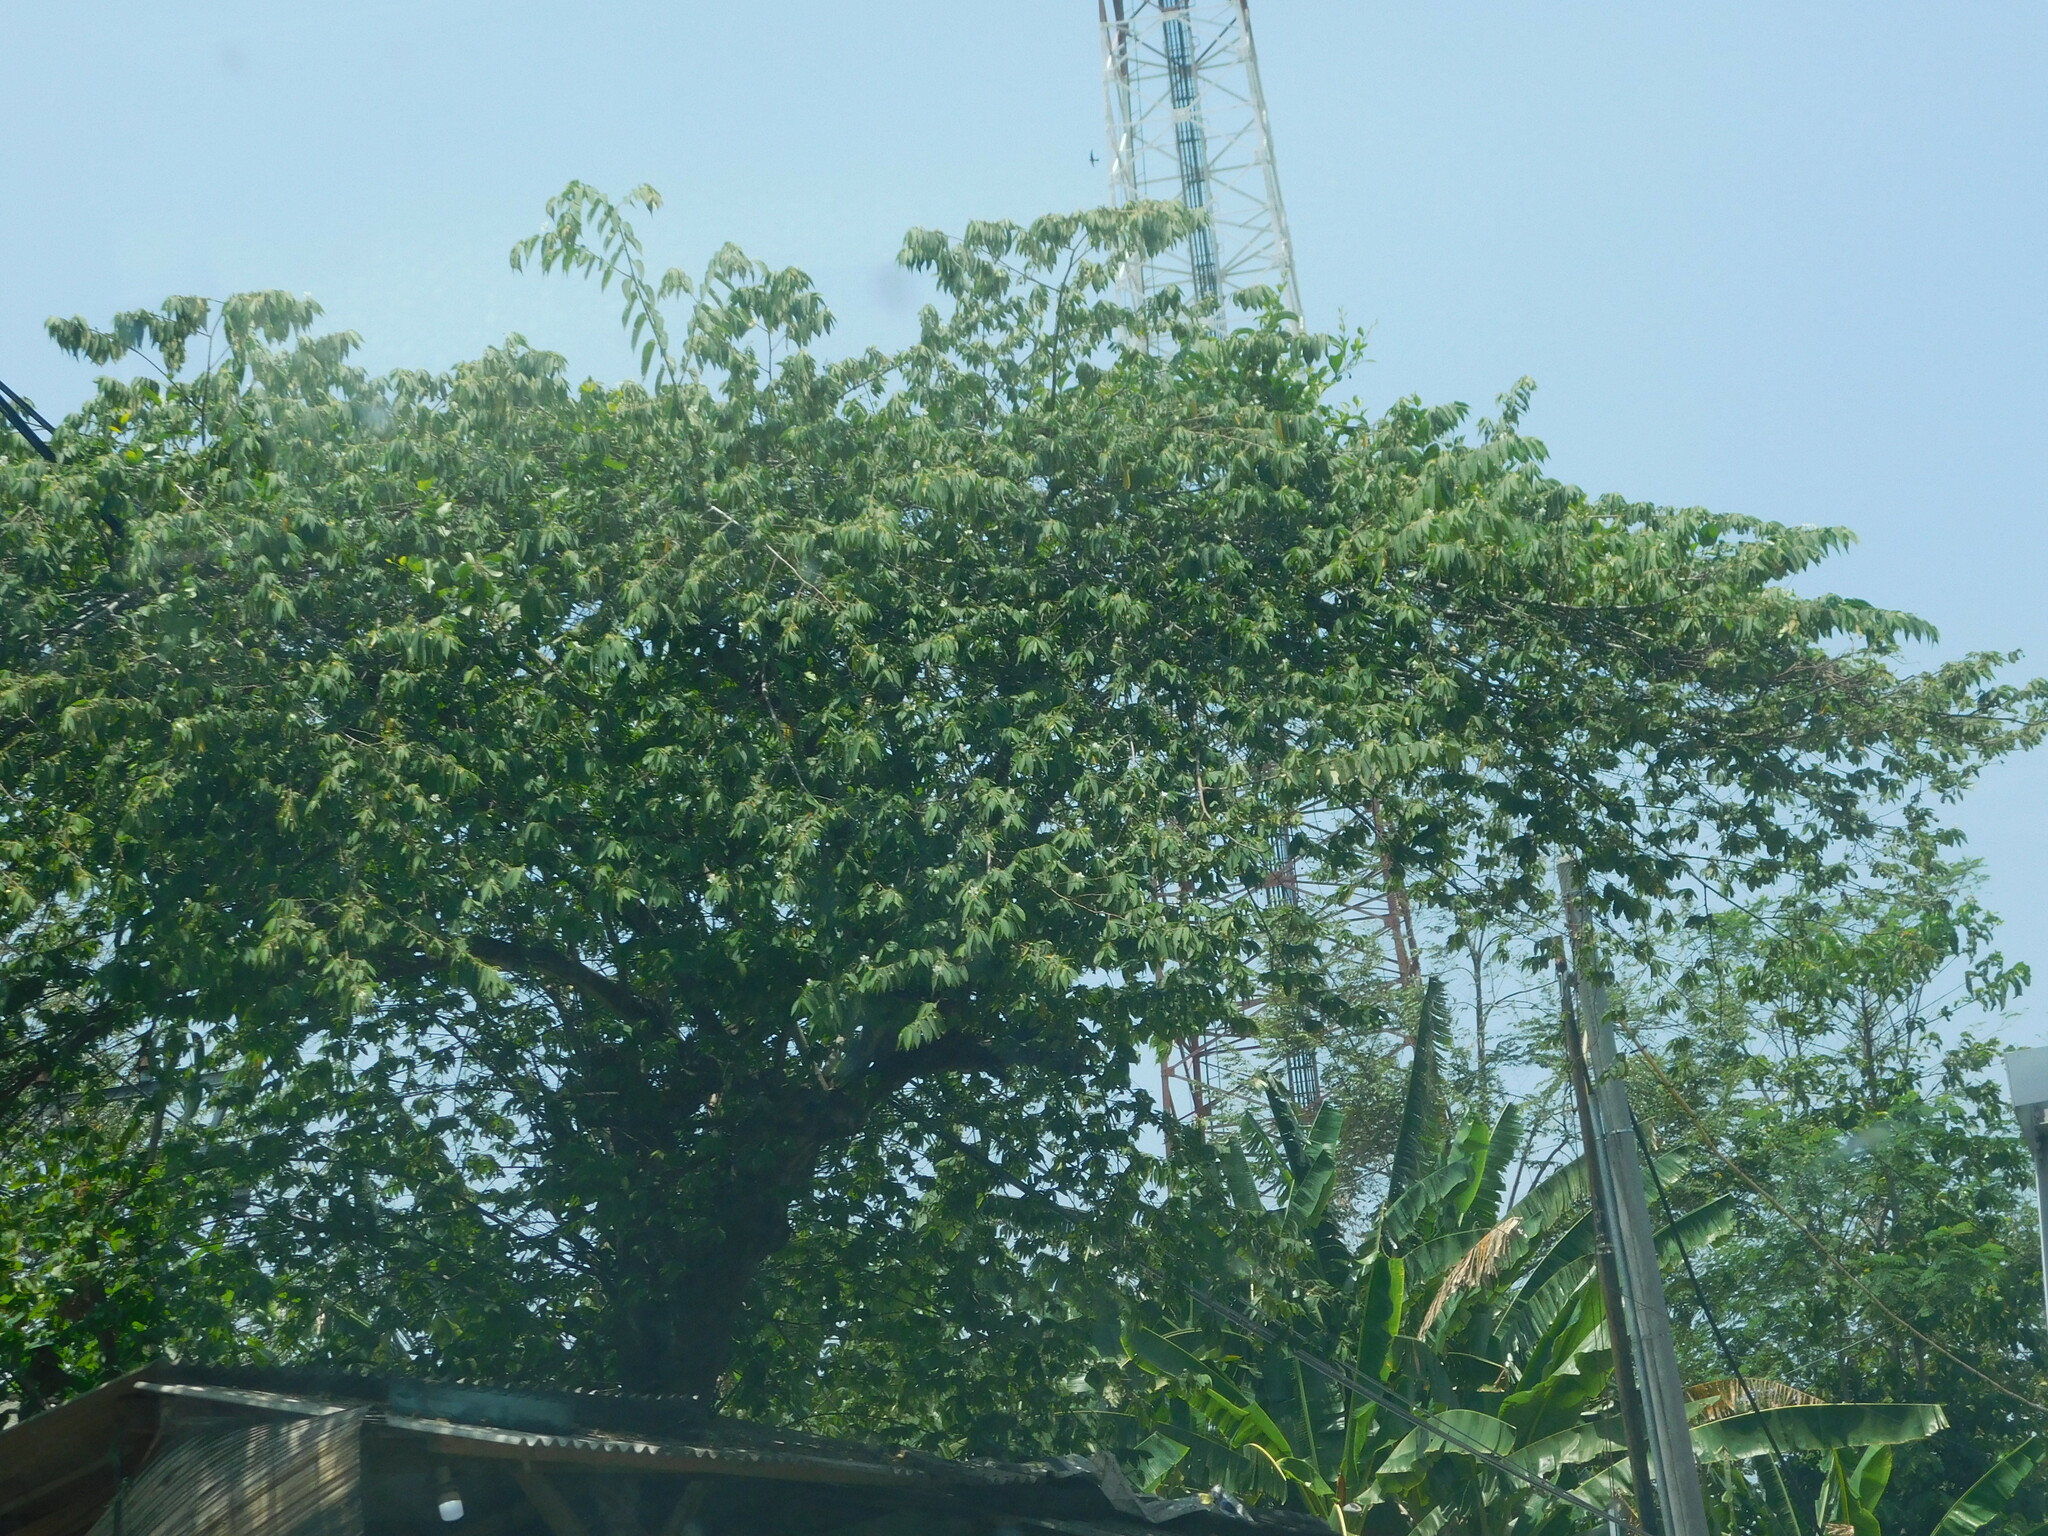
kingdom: Plantae
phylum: Tracheophyta
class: Magnoliopsida
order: Malvales
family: Muntingiaceae
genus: Muntingia
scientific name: Muntingia calabura
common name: Strawberrytree
